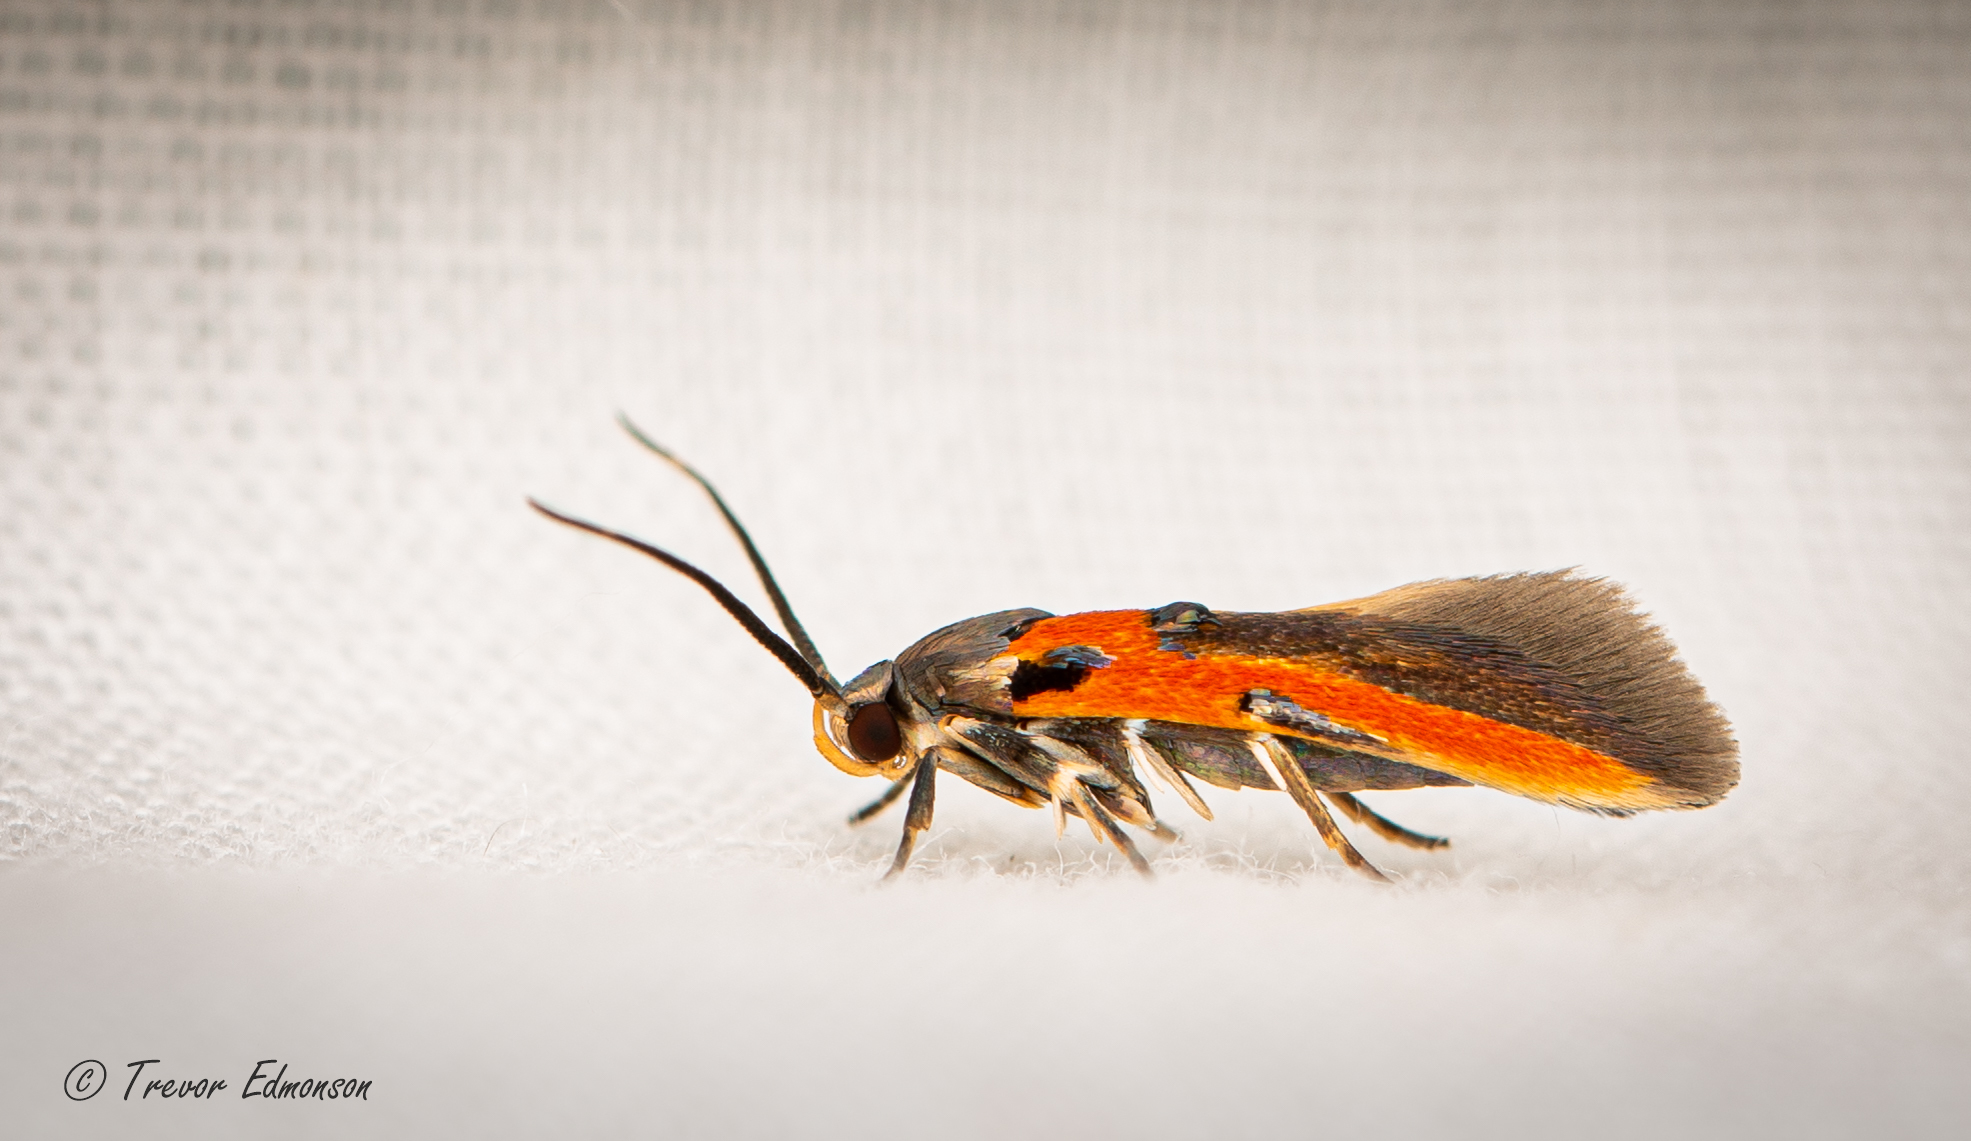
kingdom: Animalia
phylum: Arthropoda
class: Insecta
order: Lepidoptera
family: Cosmopterigidae
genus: Euclemensia
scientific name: Euclemensia bassettella
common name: Kermes scale moth
